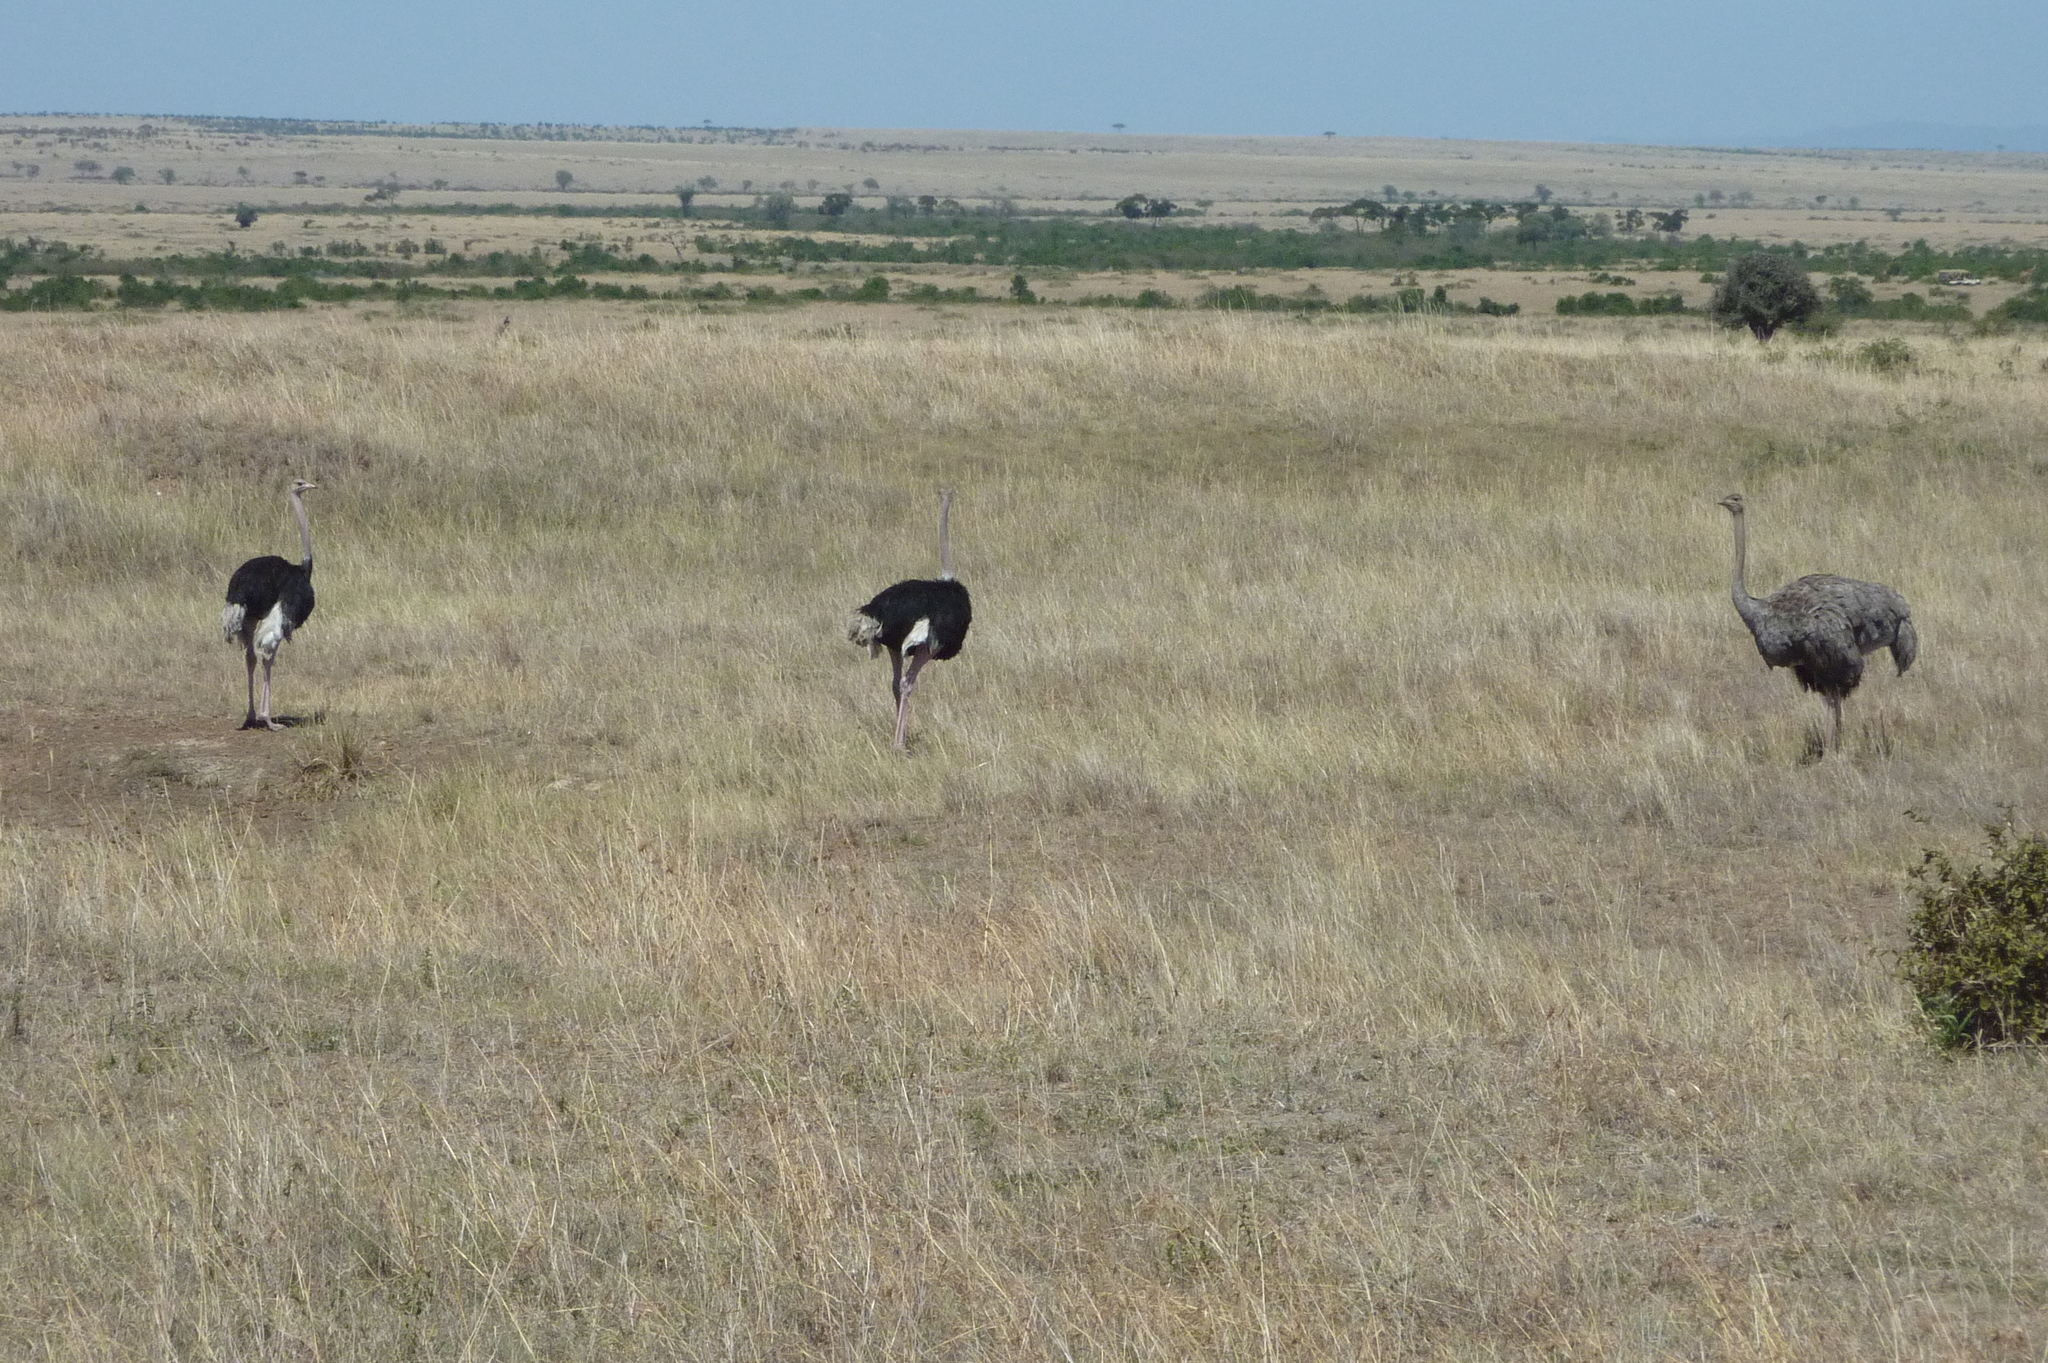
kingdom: Animalia
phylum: Chordata
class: Aves
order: Struthioniformes
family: Struthionidae
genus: Struthio
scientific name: Struthio camelus
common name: Common ostrich
